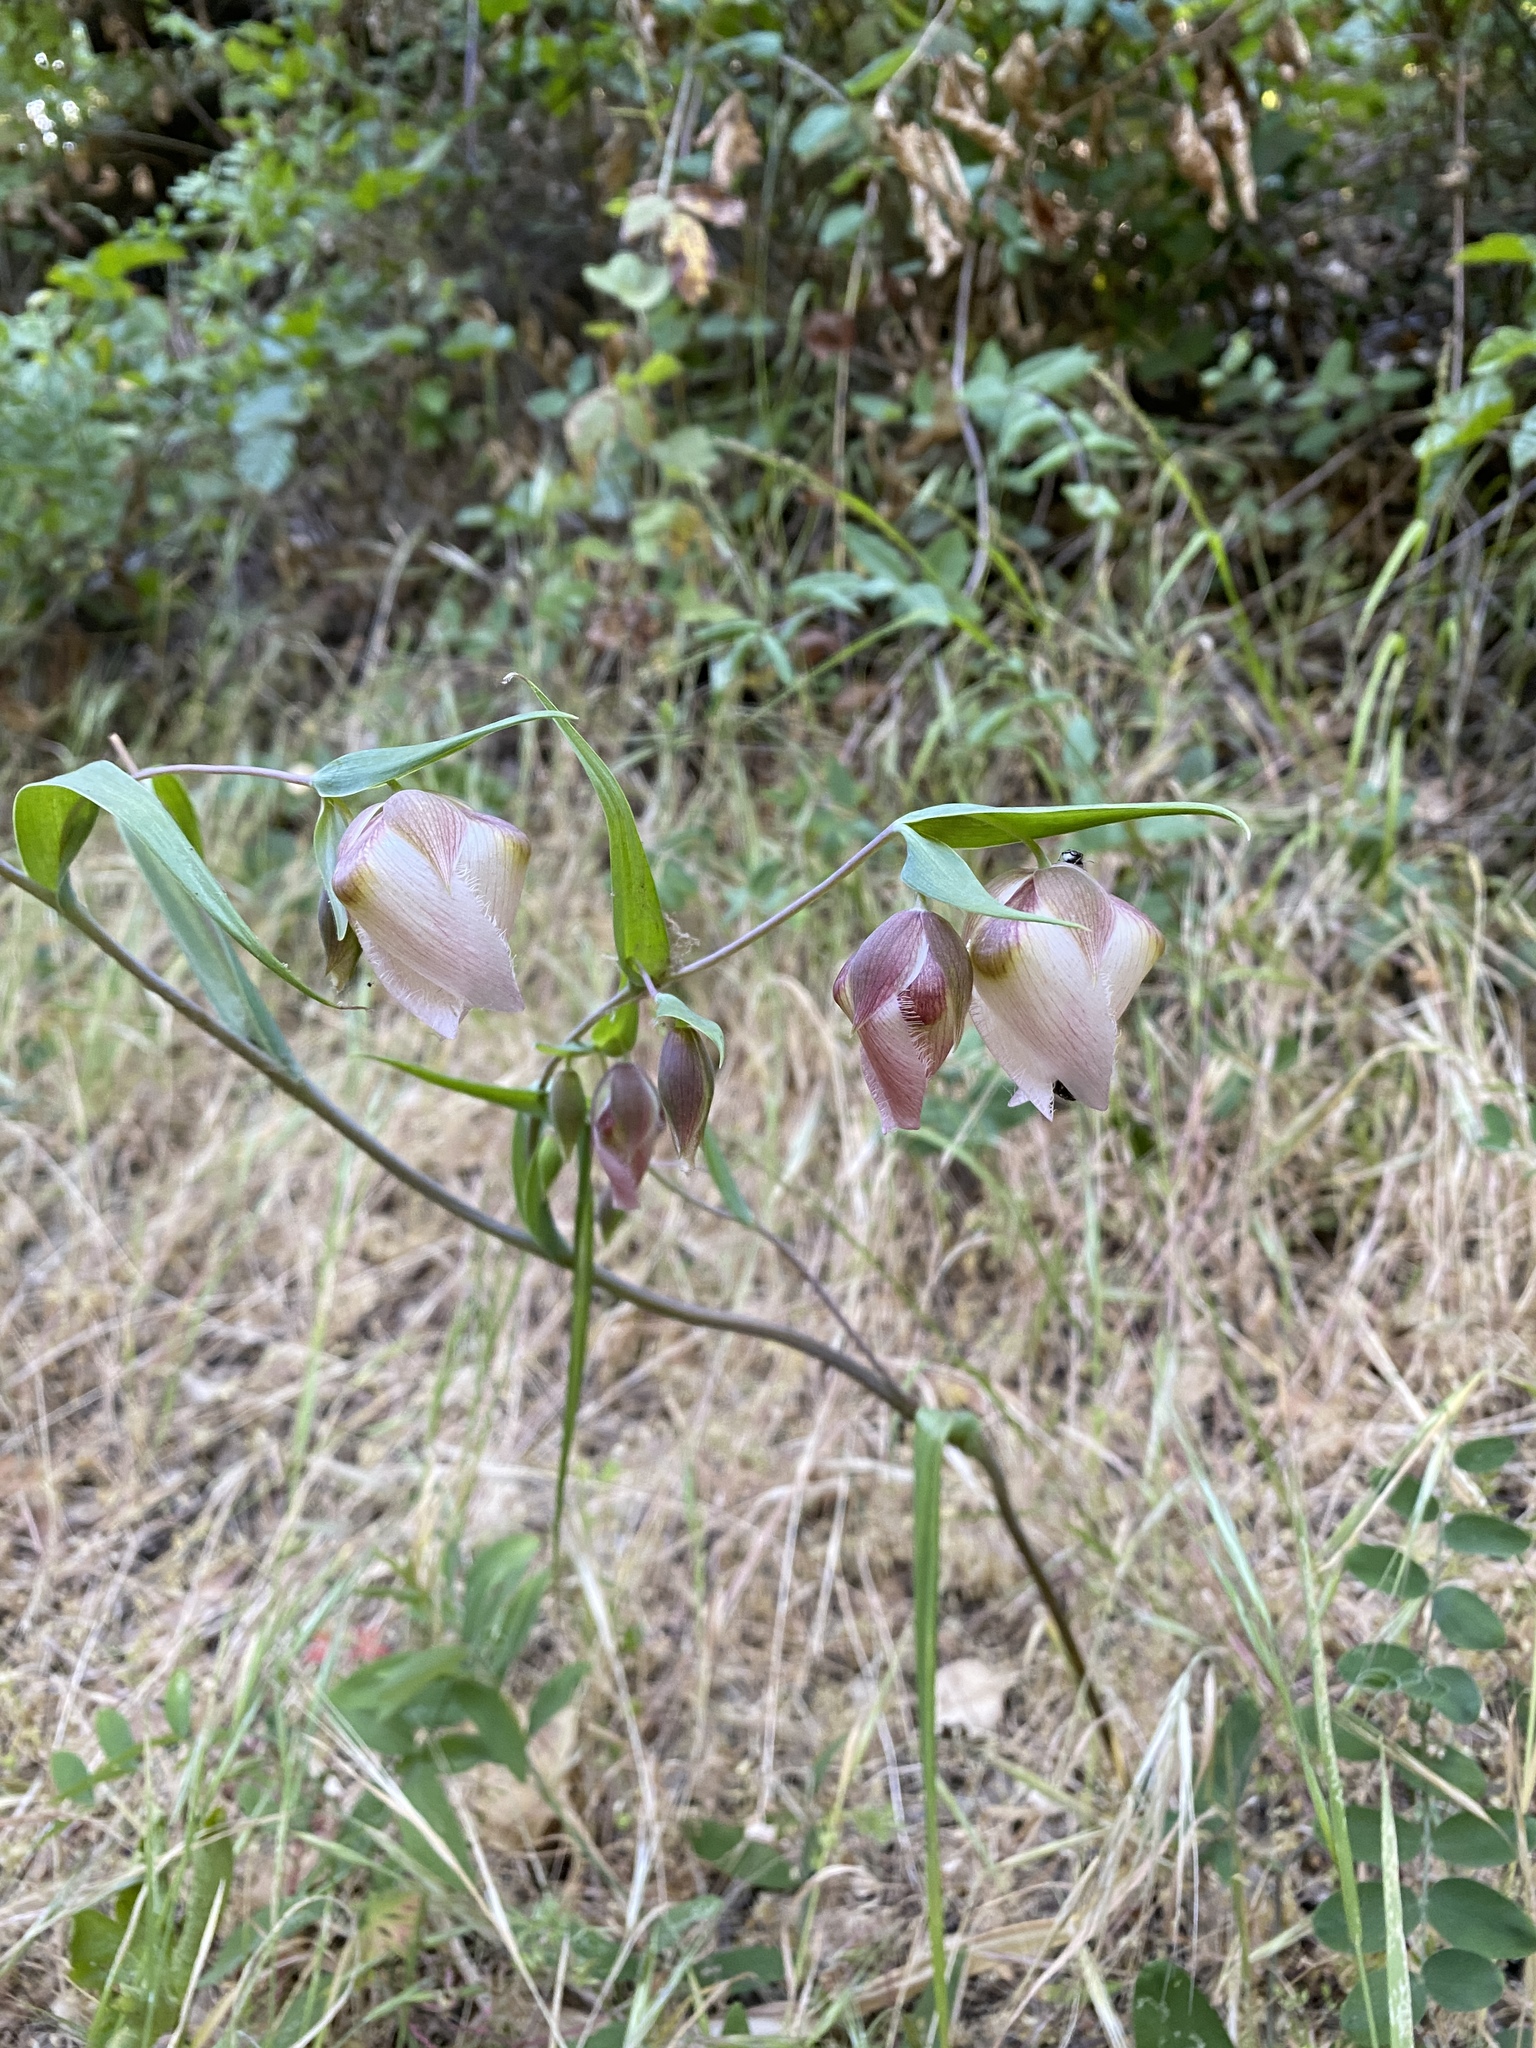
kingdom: Plantae
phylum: Tracheophyta
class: Liliopsida
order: Liliales
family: Liliaceae
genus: Calochortus
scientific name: Calochortus albus
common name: Fairy-lantern
